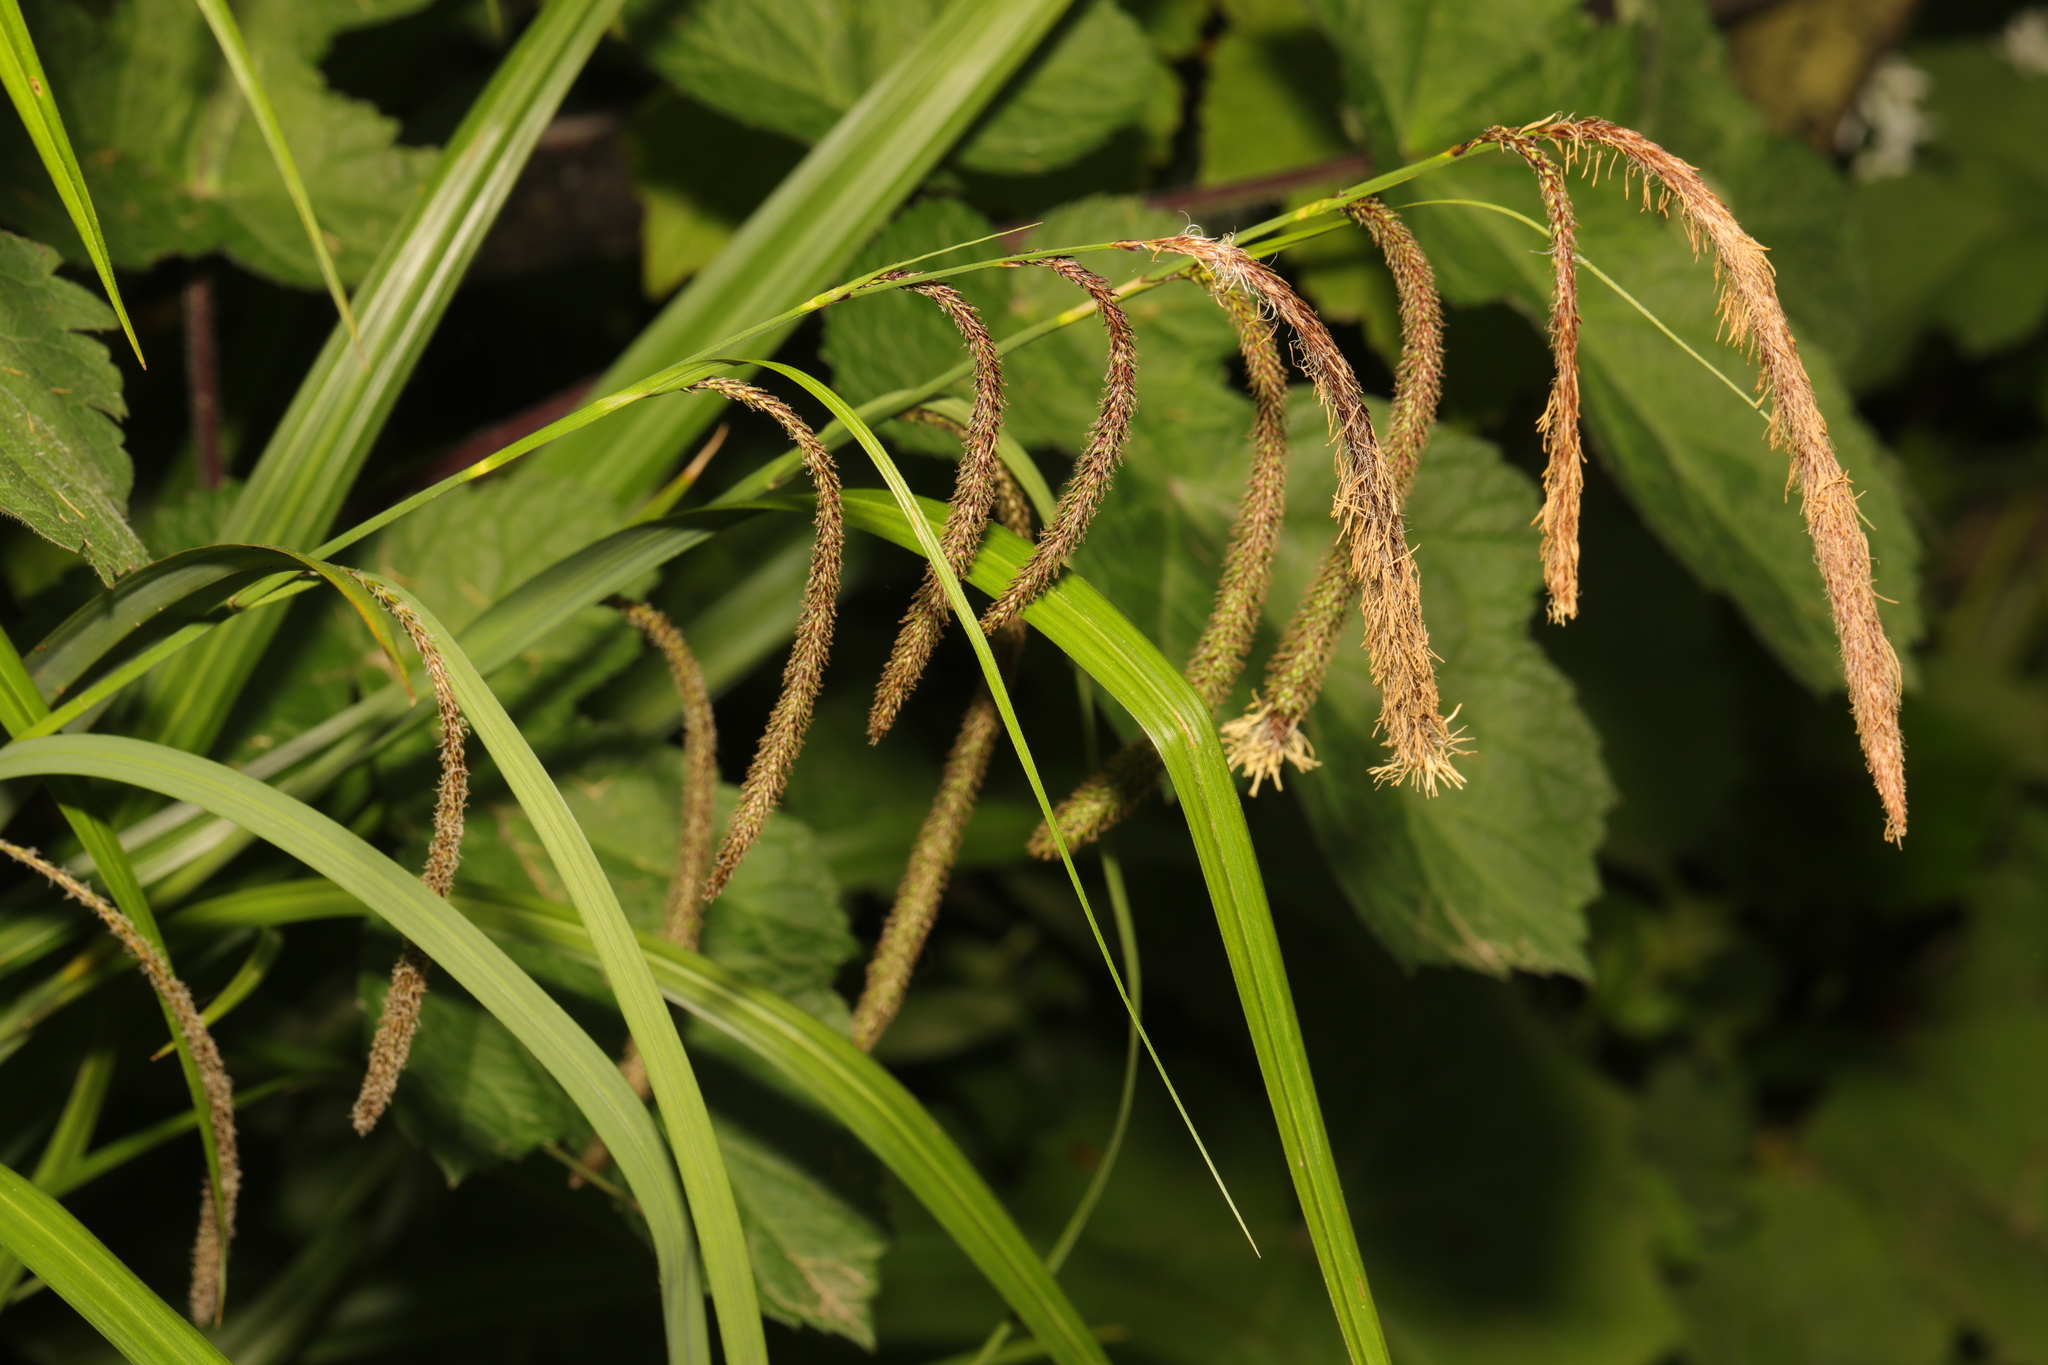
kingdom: Plantae
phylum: Tracheophyta
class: Liliopsida
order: Poales
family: Cyperaceae
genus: Carex
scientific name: Carex pendula
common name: Pendulous sedge
